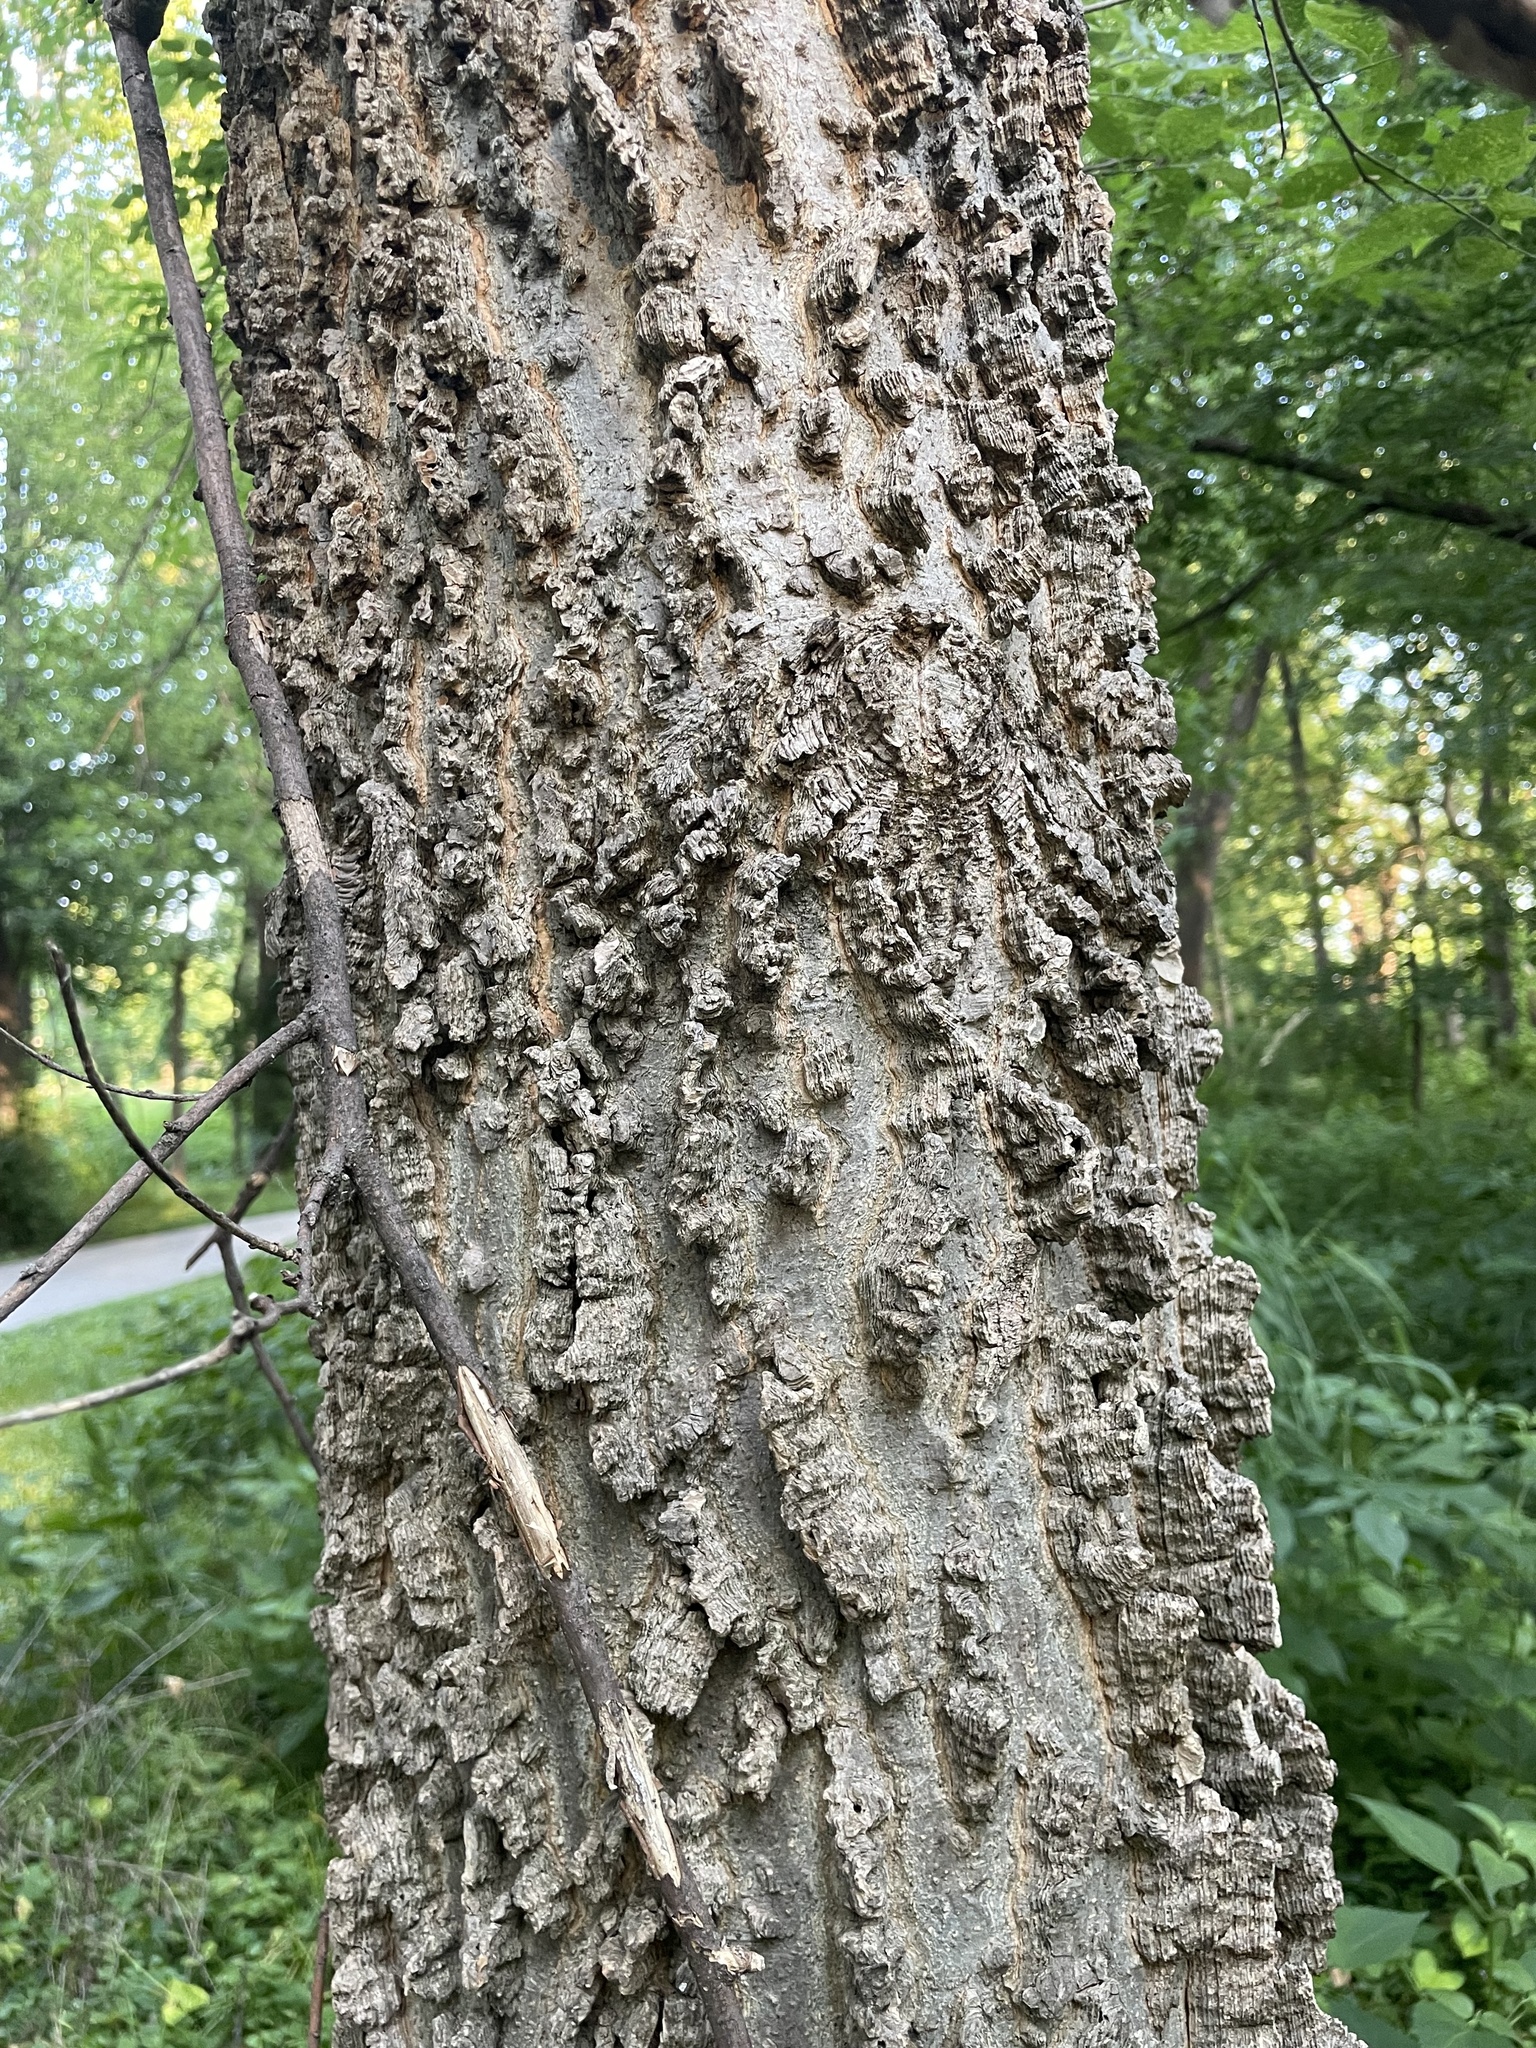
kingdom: Plantae
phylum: Tracheophyta
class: Magnoliopsida
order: Rosales
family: Cannabaceae
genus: Celtis
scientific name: Celtis occidentalis
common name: Common hackberry
